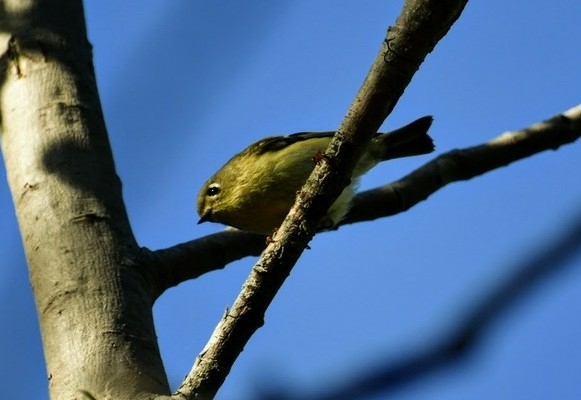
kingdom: Animalia
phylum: Chordata
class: Aves
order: Passeriformes
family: Regulidae
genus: Regulus
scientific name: Regulus calendula
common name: Ruby-crowned kinglet
